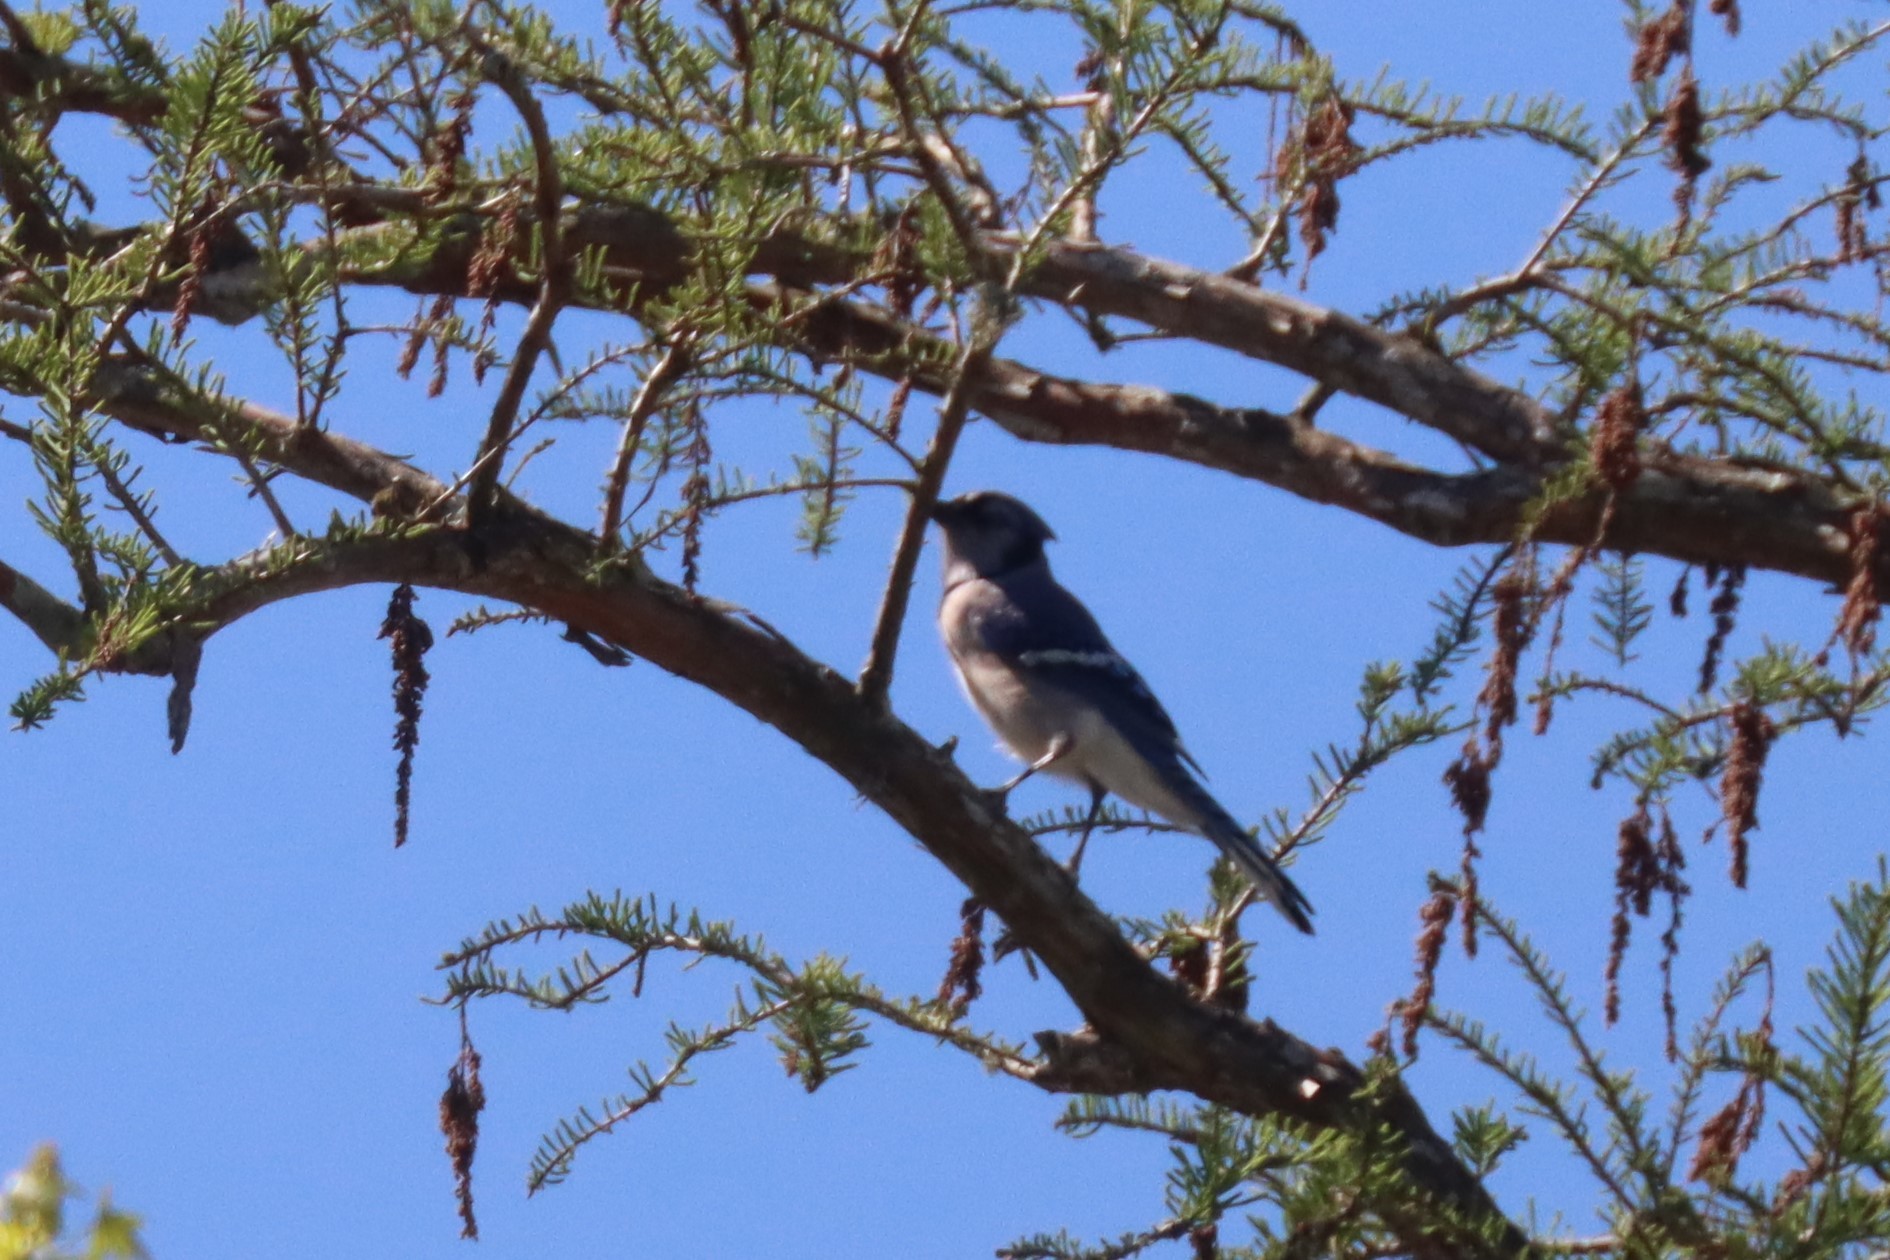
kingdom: Animalia
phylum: Chordata
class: Aves
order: Passeriformes
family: Corvidae
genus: Cyanocitta
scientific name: Cyanocitta cristata
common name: Blue jay
